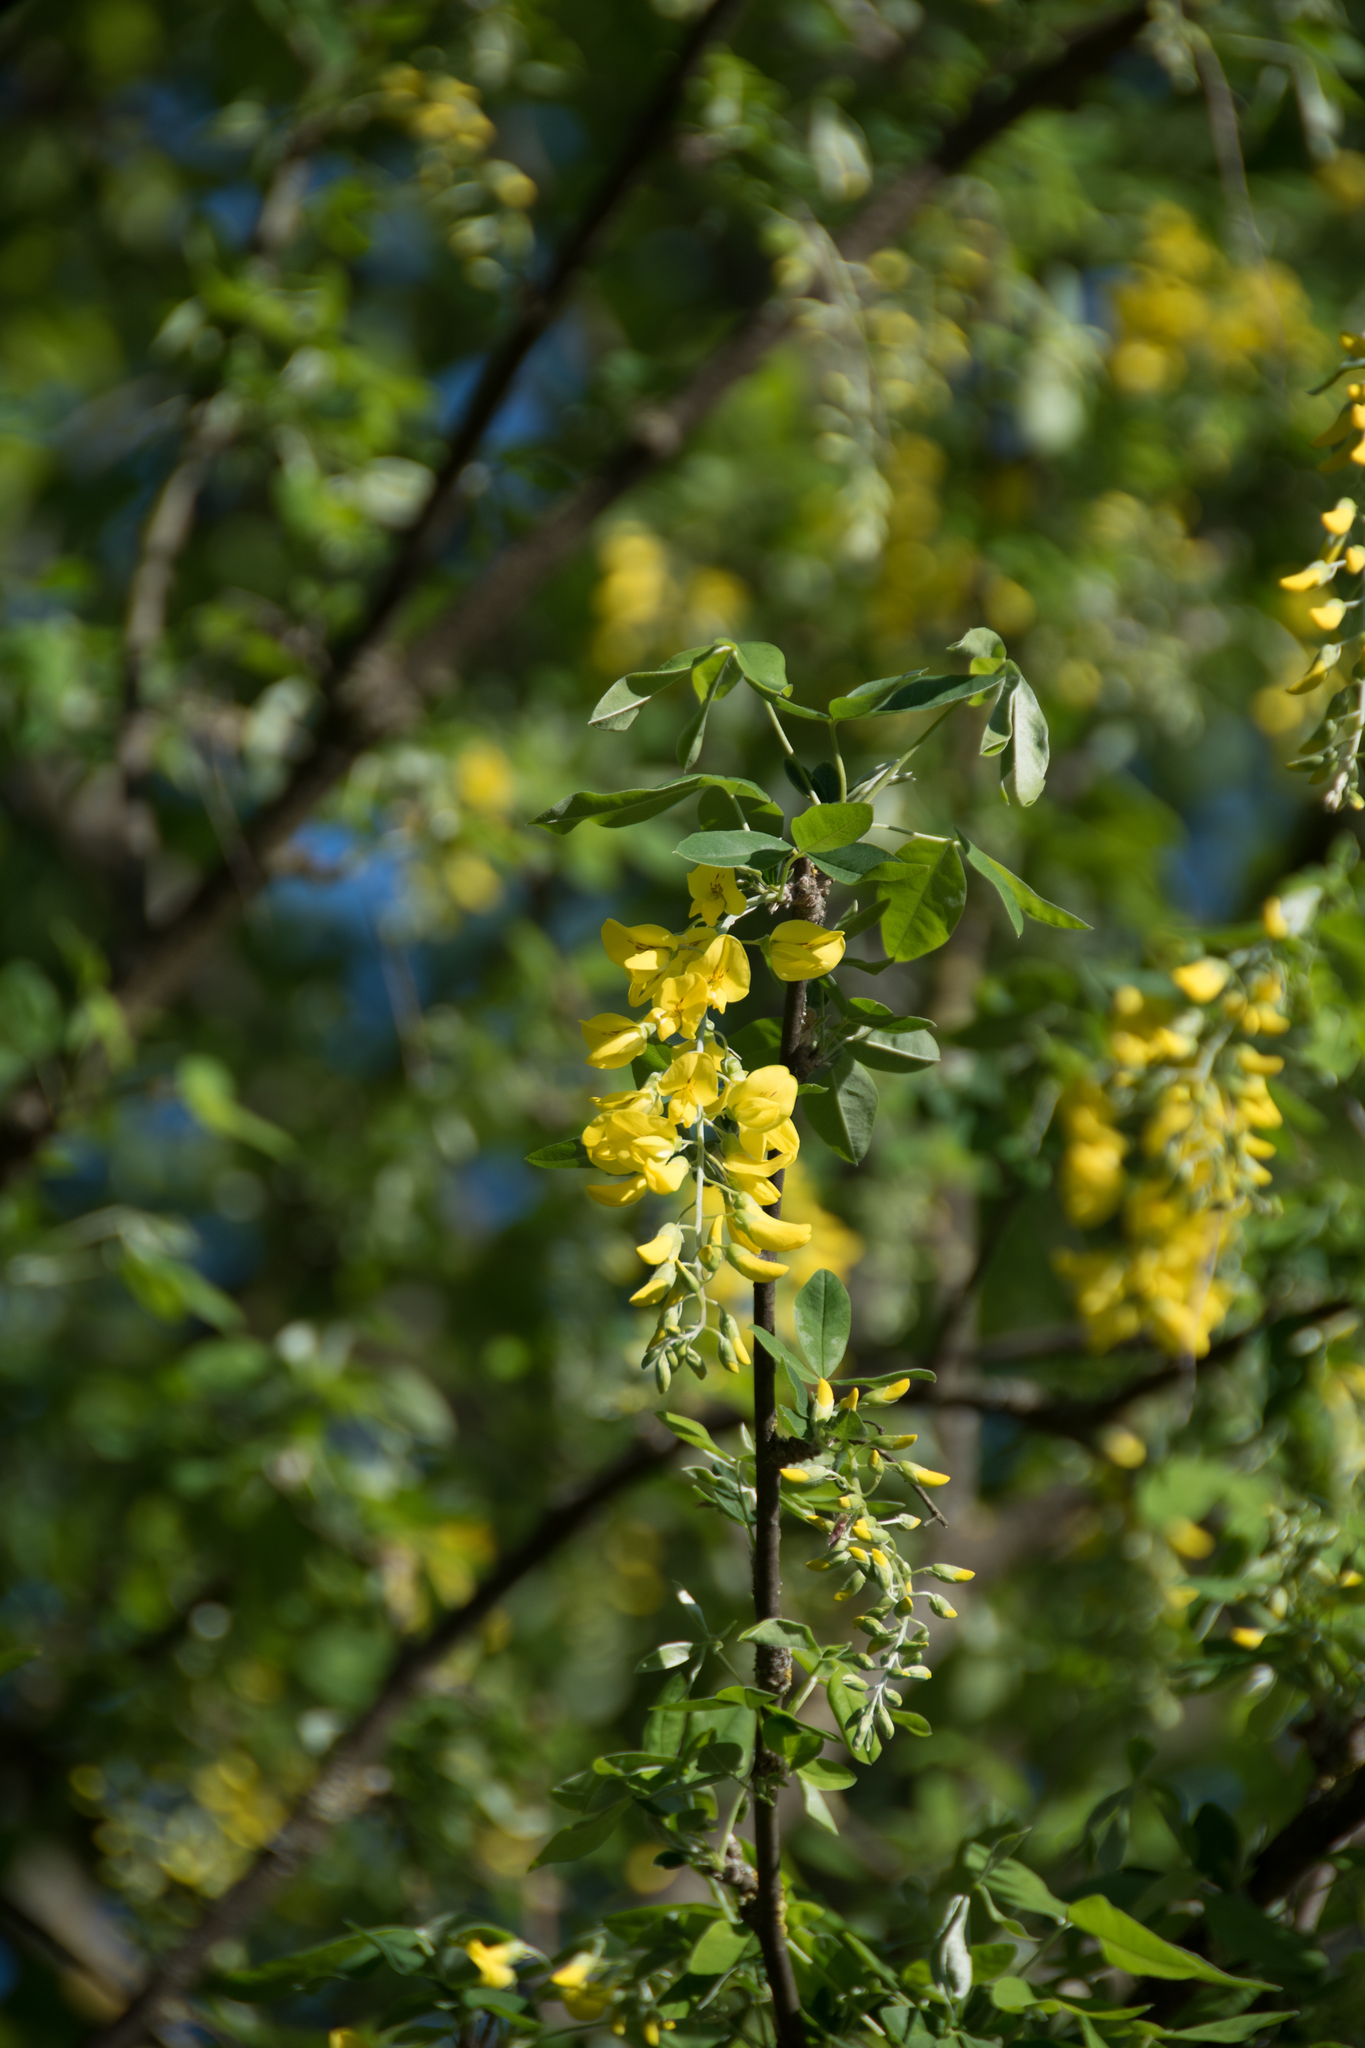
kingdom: Plantae
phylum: Tracheophyta
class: Magnoliopsida
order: Fabales
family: Fabaceae
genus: Laburnum
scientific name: Laburnum anagyroides
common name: Laburnum
